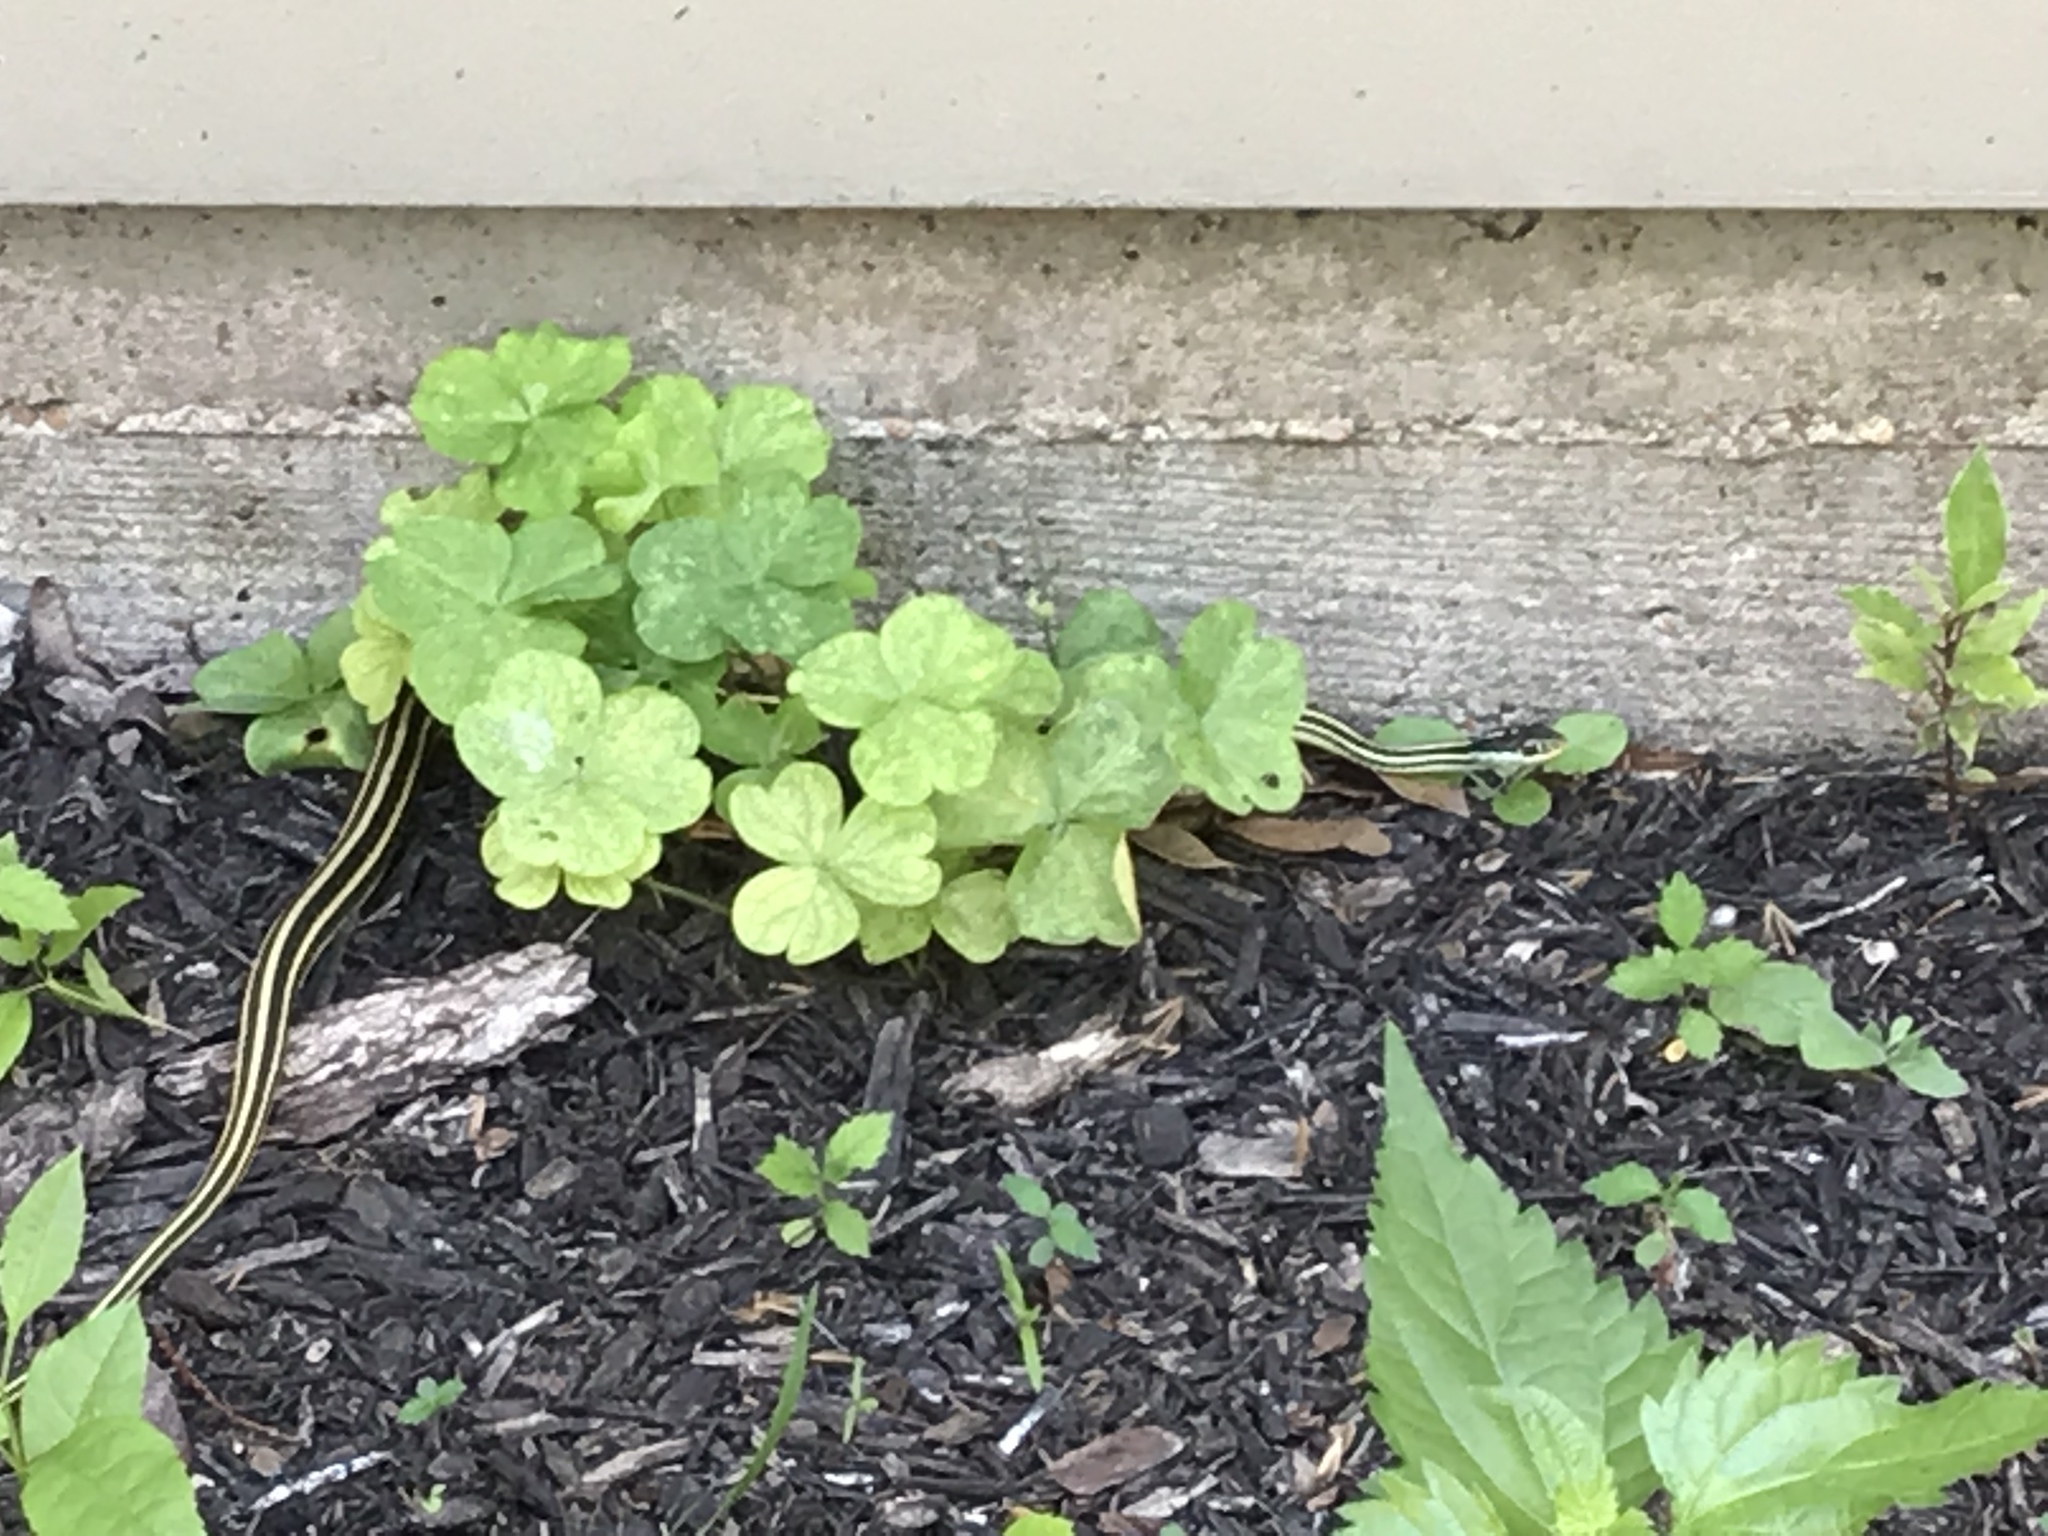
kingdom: Animalia
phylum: Chordata
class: Squamata
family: Colubridae
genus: Thamnophis
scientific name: Thamnophis proximus
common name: Western ribbon snake
